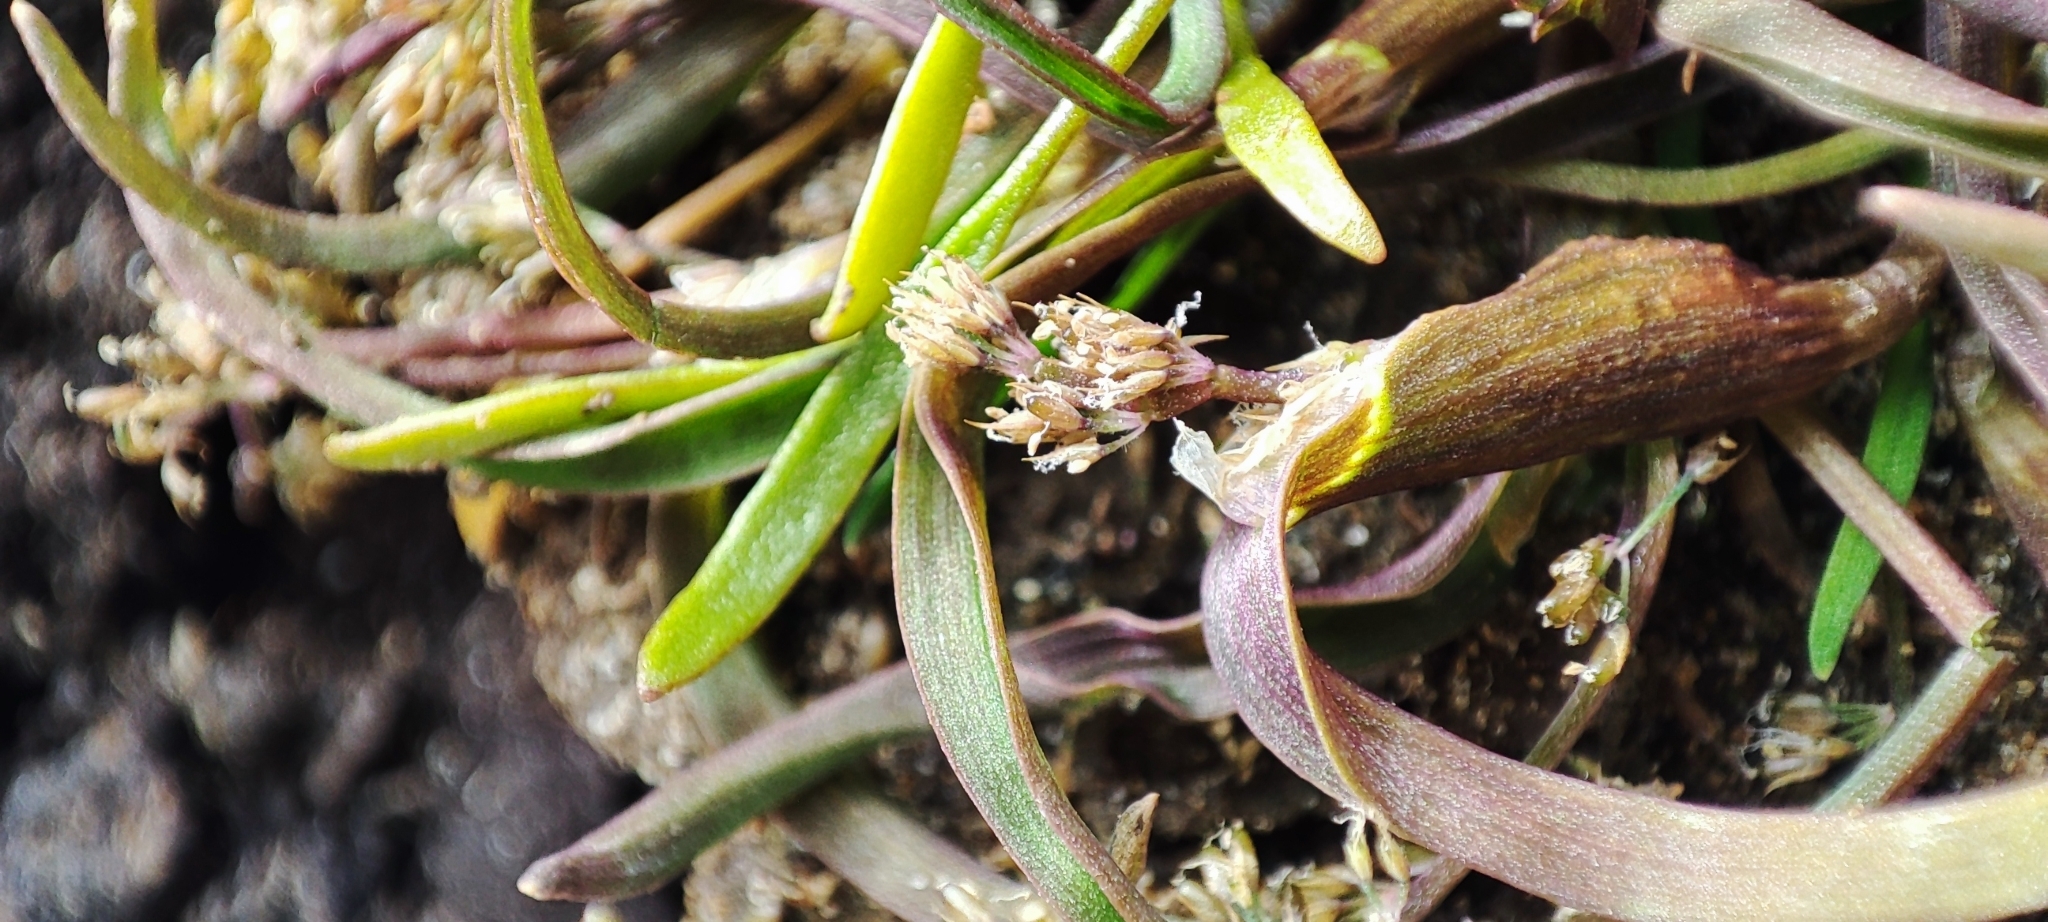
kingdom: Plantae
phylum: Tracheophyta
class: Liliopsida
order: Poales
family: Poaceae
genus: Coleanthus
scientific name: Coleanthus subtilis
